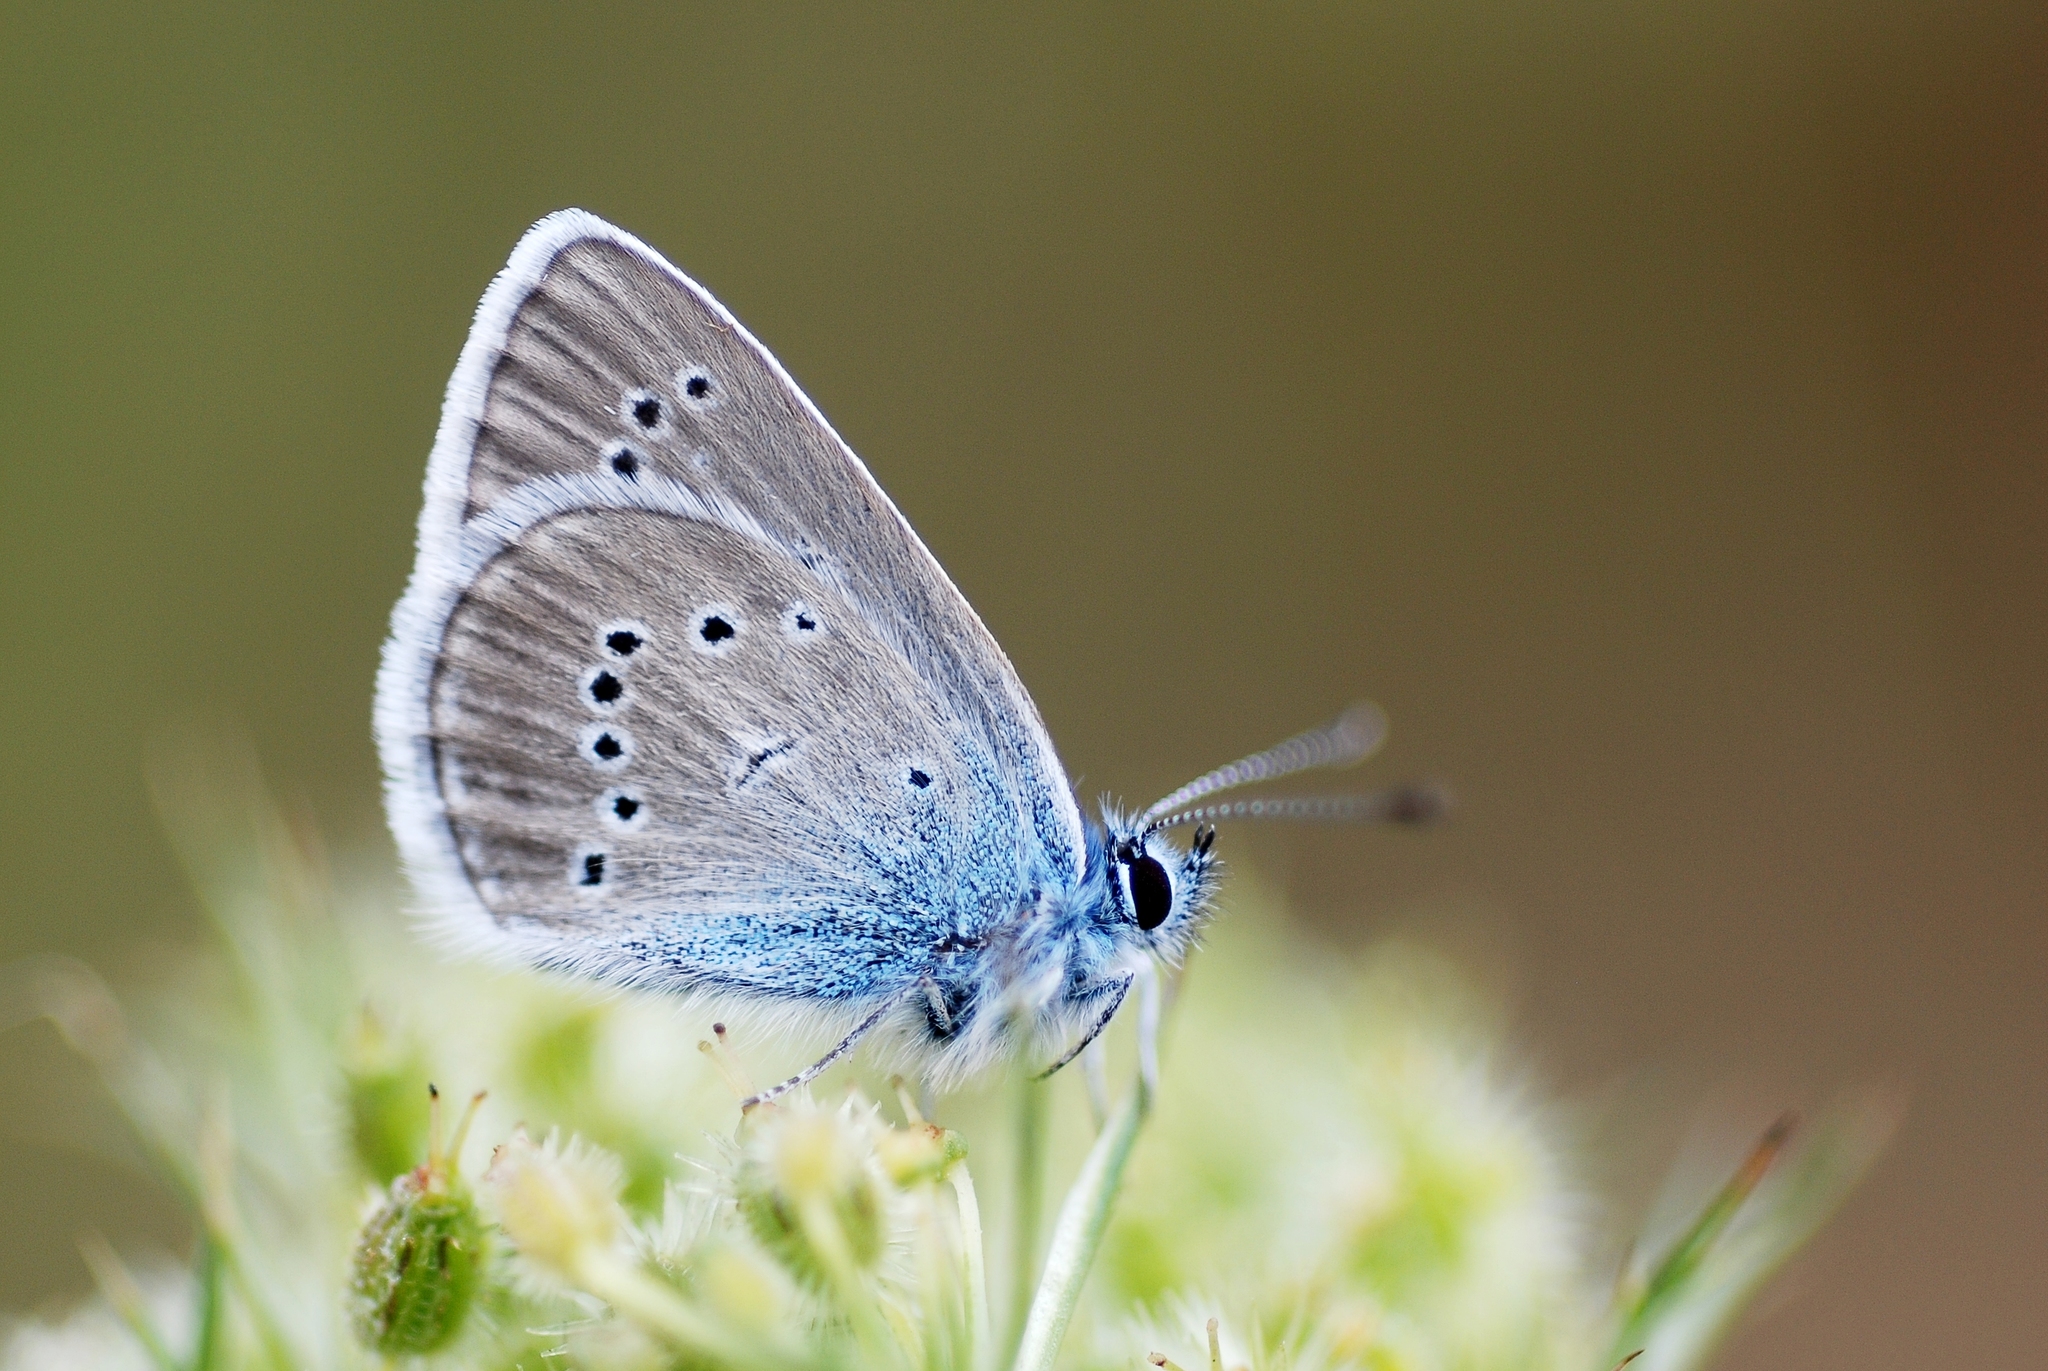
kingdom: Animalia
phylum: Arthropoda
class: Insecta
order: Lepidoptera
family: Lycaenidae
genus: Cyaniris
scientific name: Cyaniris semiargus
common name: Mazarine blue
